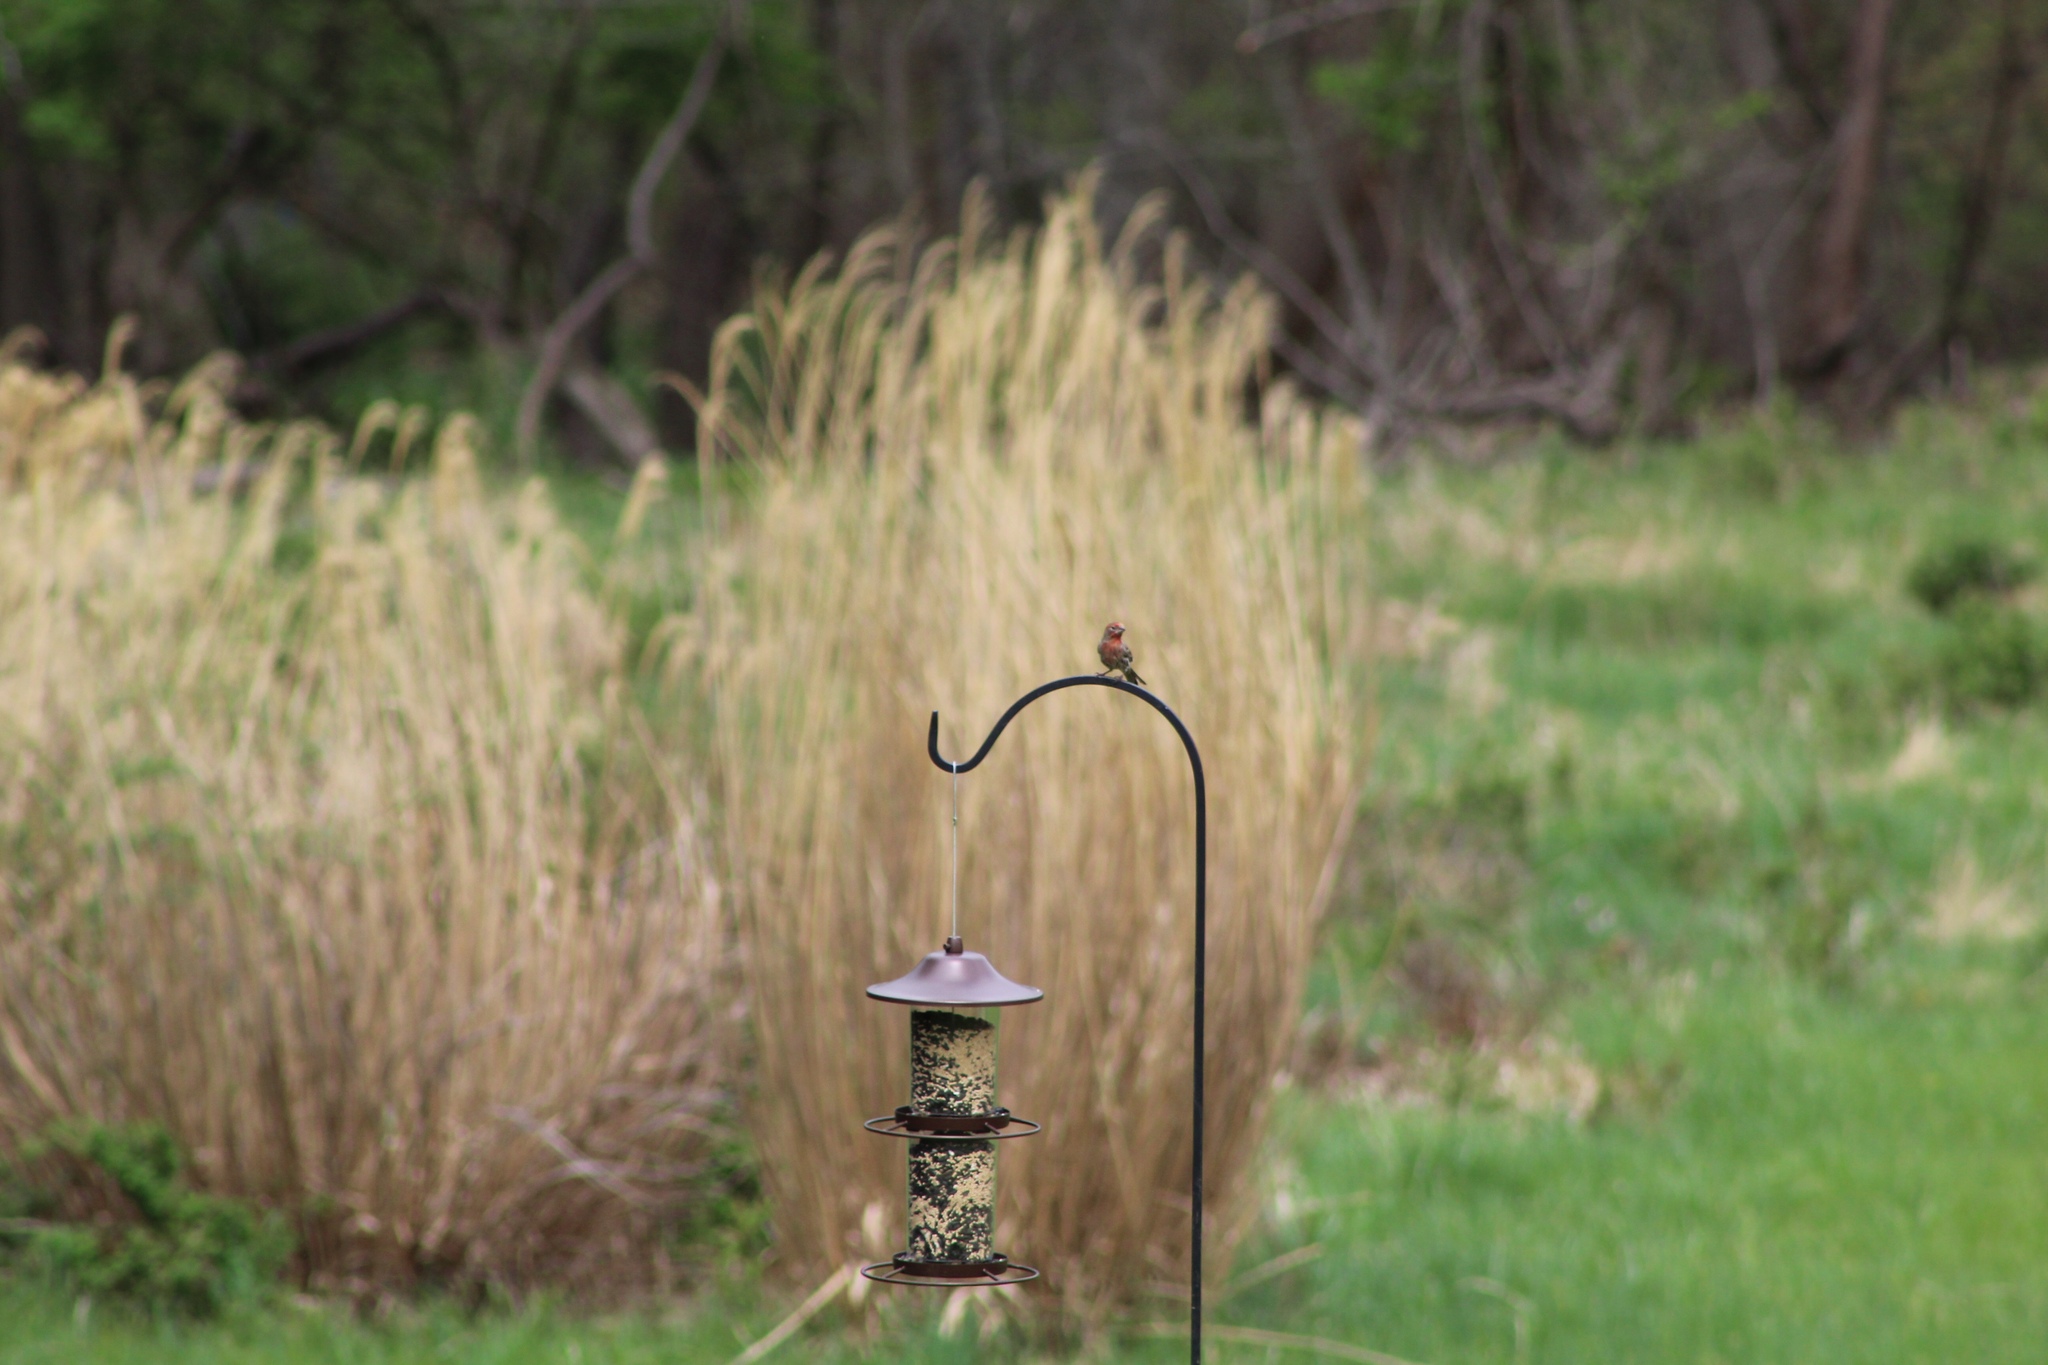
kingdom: Animalia
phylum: Chordata
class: Aves
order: Passeriformes
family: Fringillidae
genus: Haemorhous
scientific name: Haemorhous mexicanus
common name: House finch
